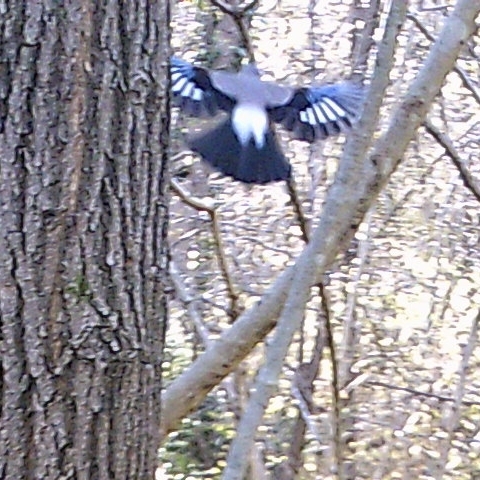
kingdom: Animalia
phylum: Chordata
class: Aves
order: Passeriformes
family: Corvidae
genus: Garrulus
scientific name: Garrulus glandarius
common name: Eurasian jay
